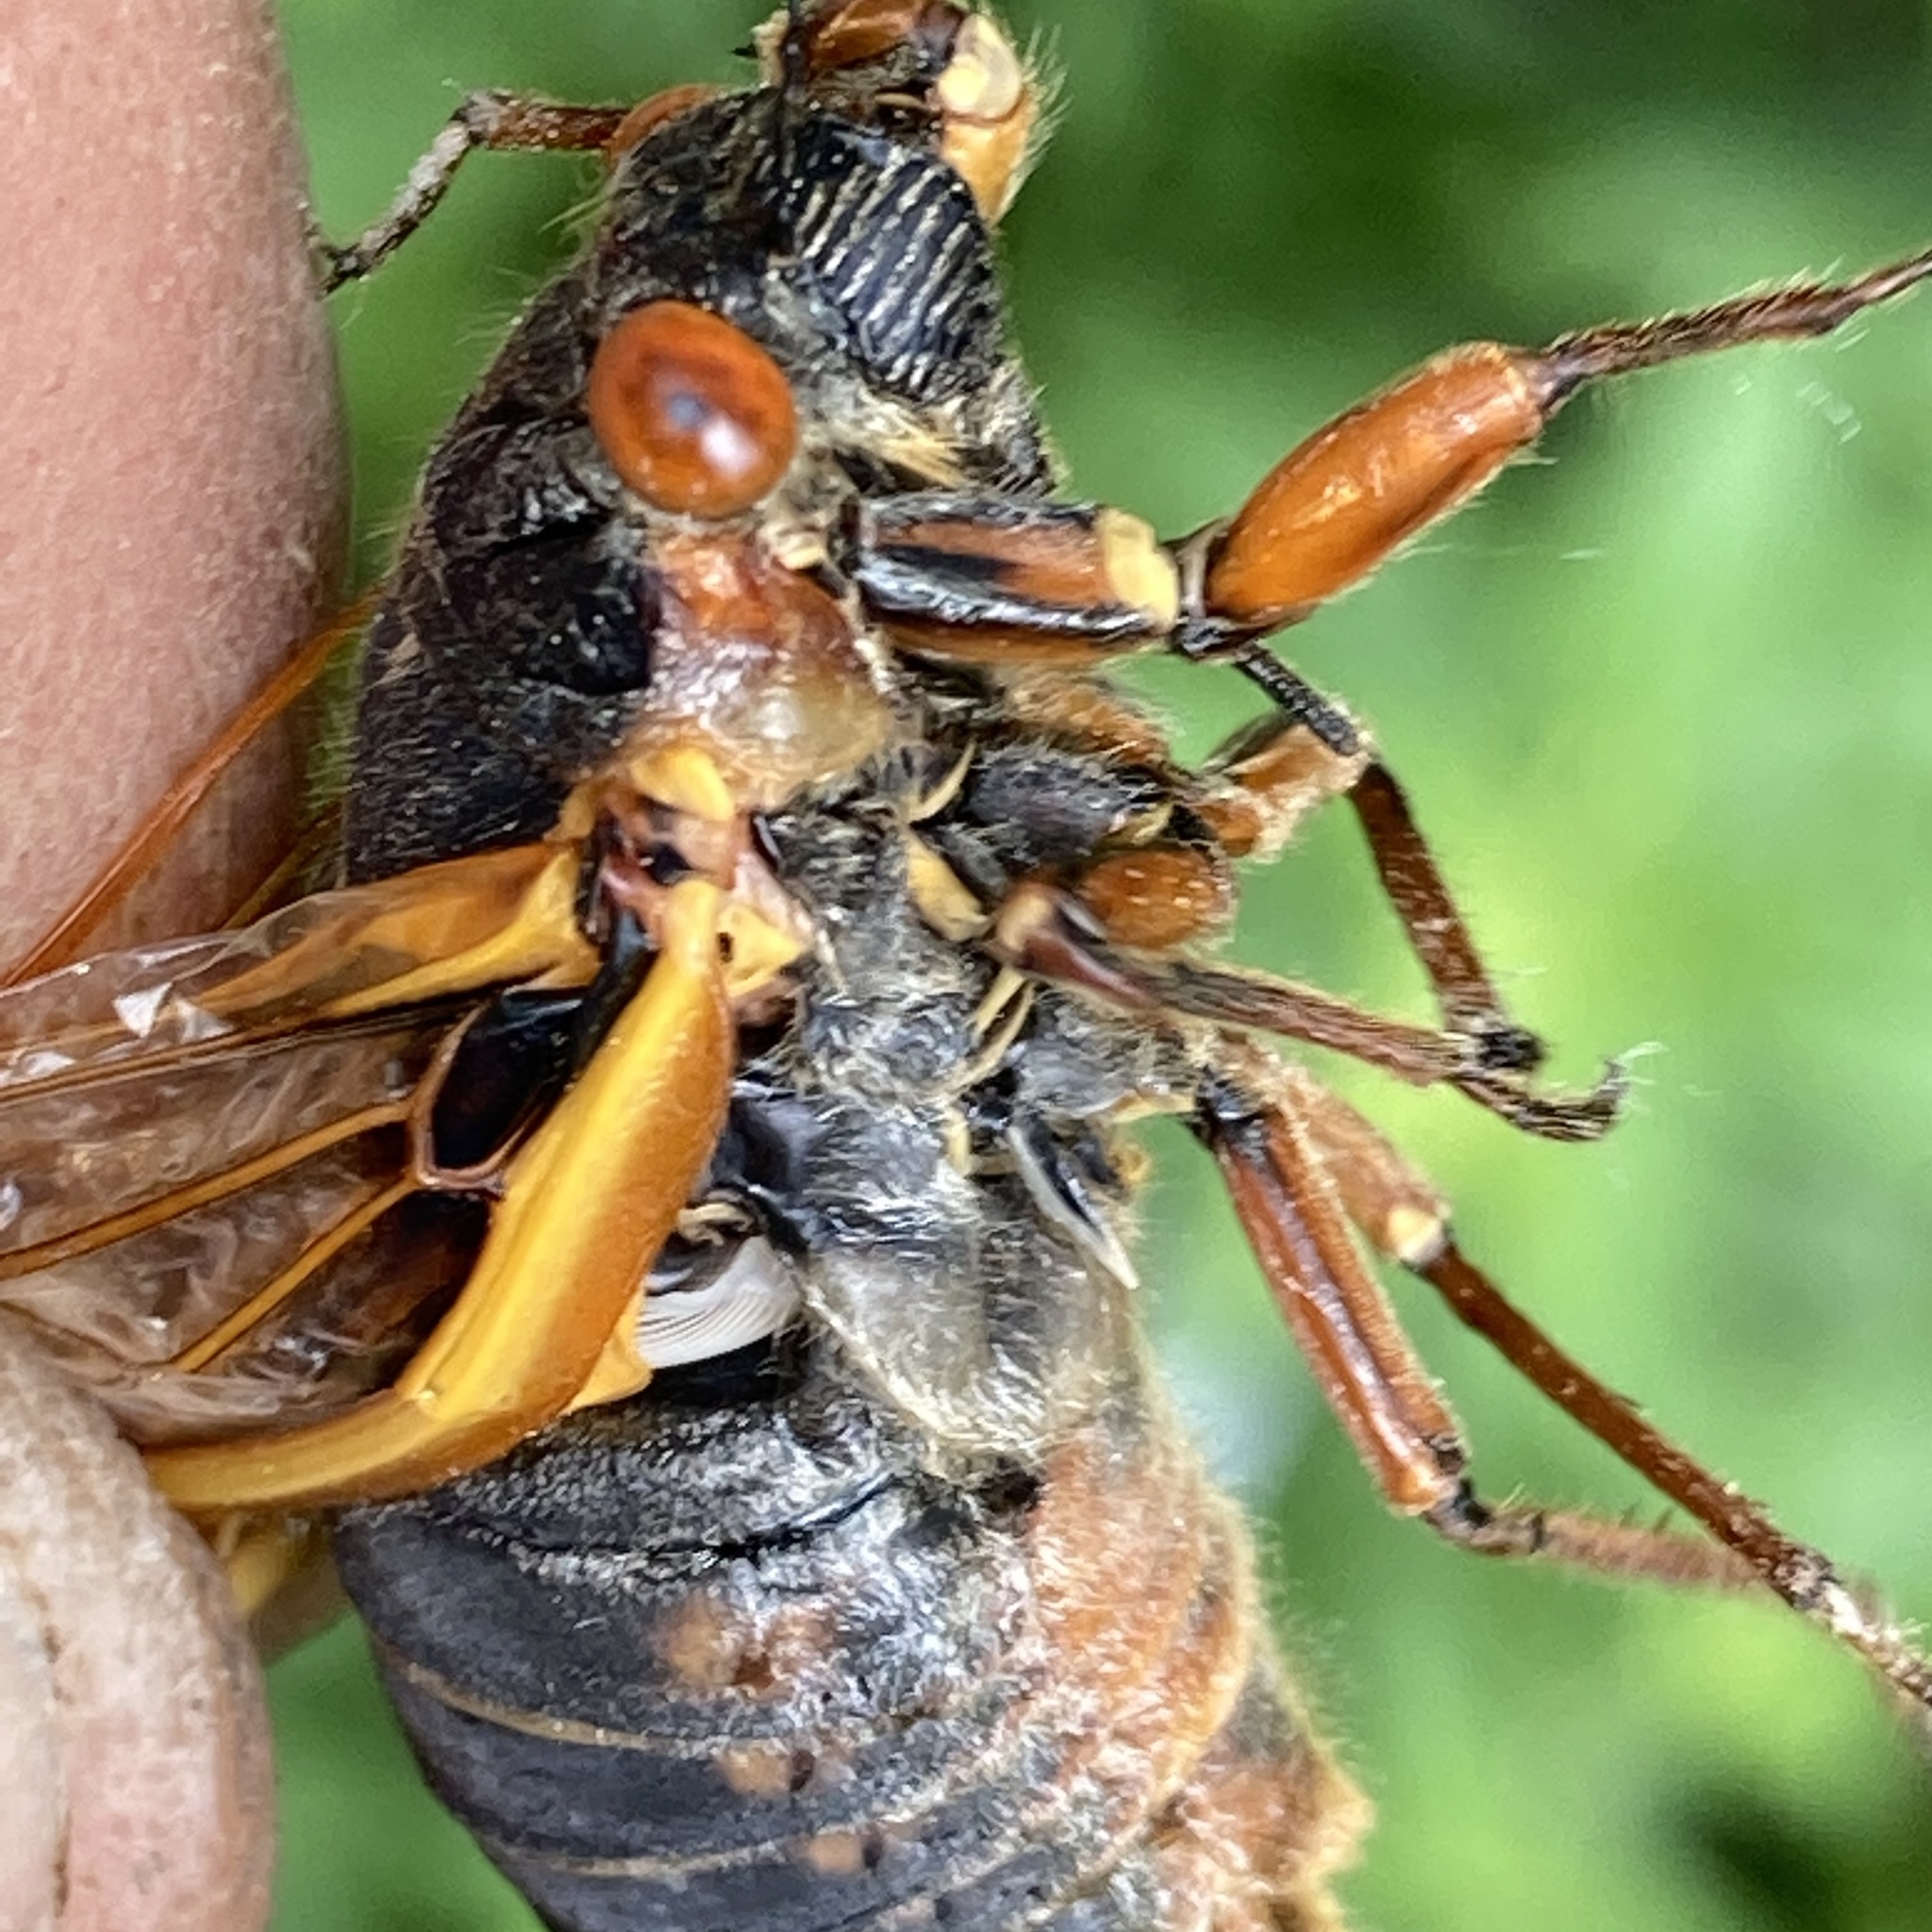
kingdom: Animalia
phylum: Arthropoda
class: Insecta
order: Hemiptera
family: Cicadidae
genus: Magicicada
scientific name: Magicicada septendecim
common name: Periodical cicada
